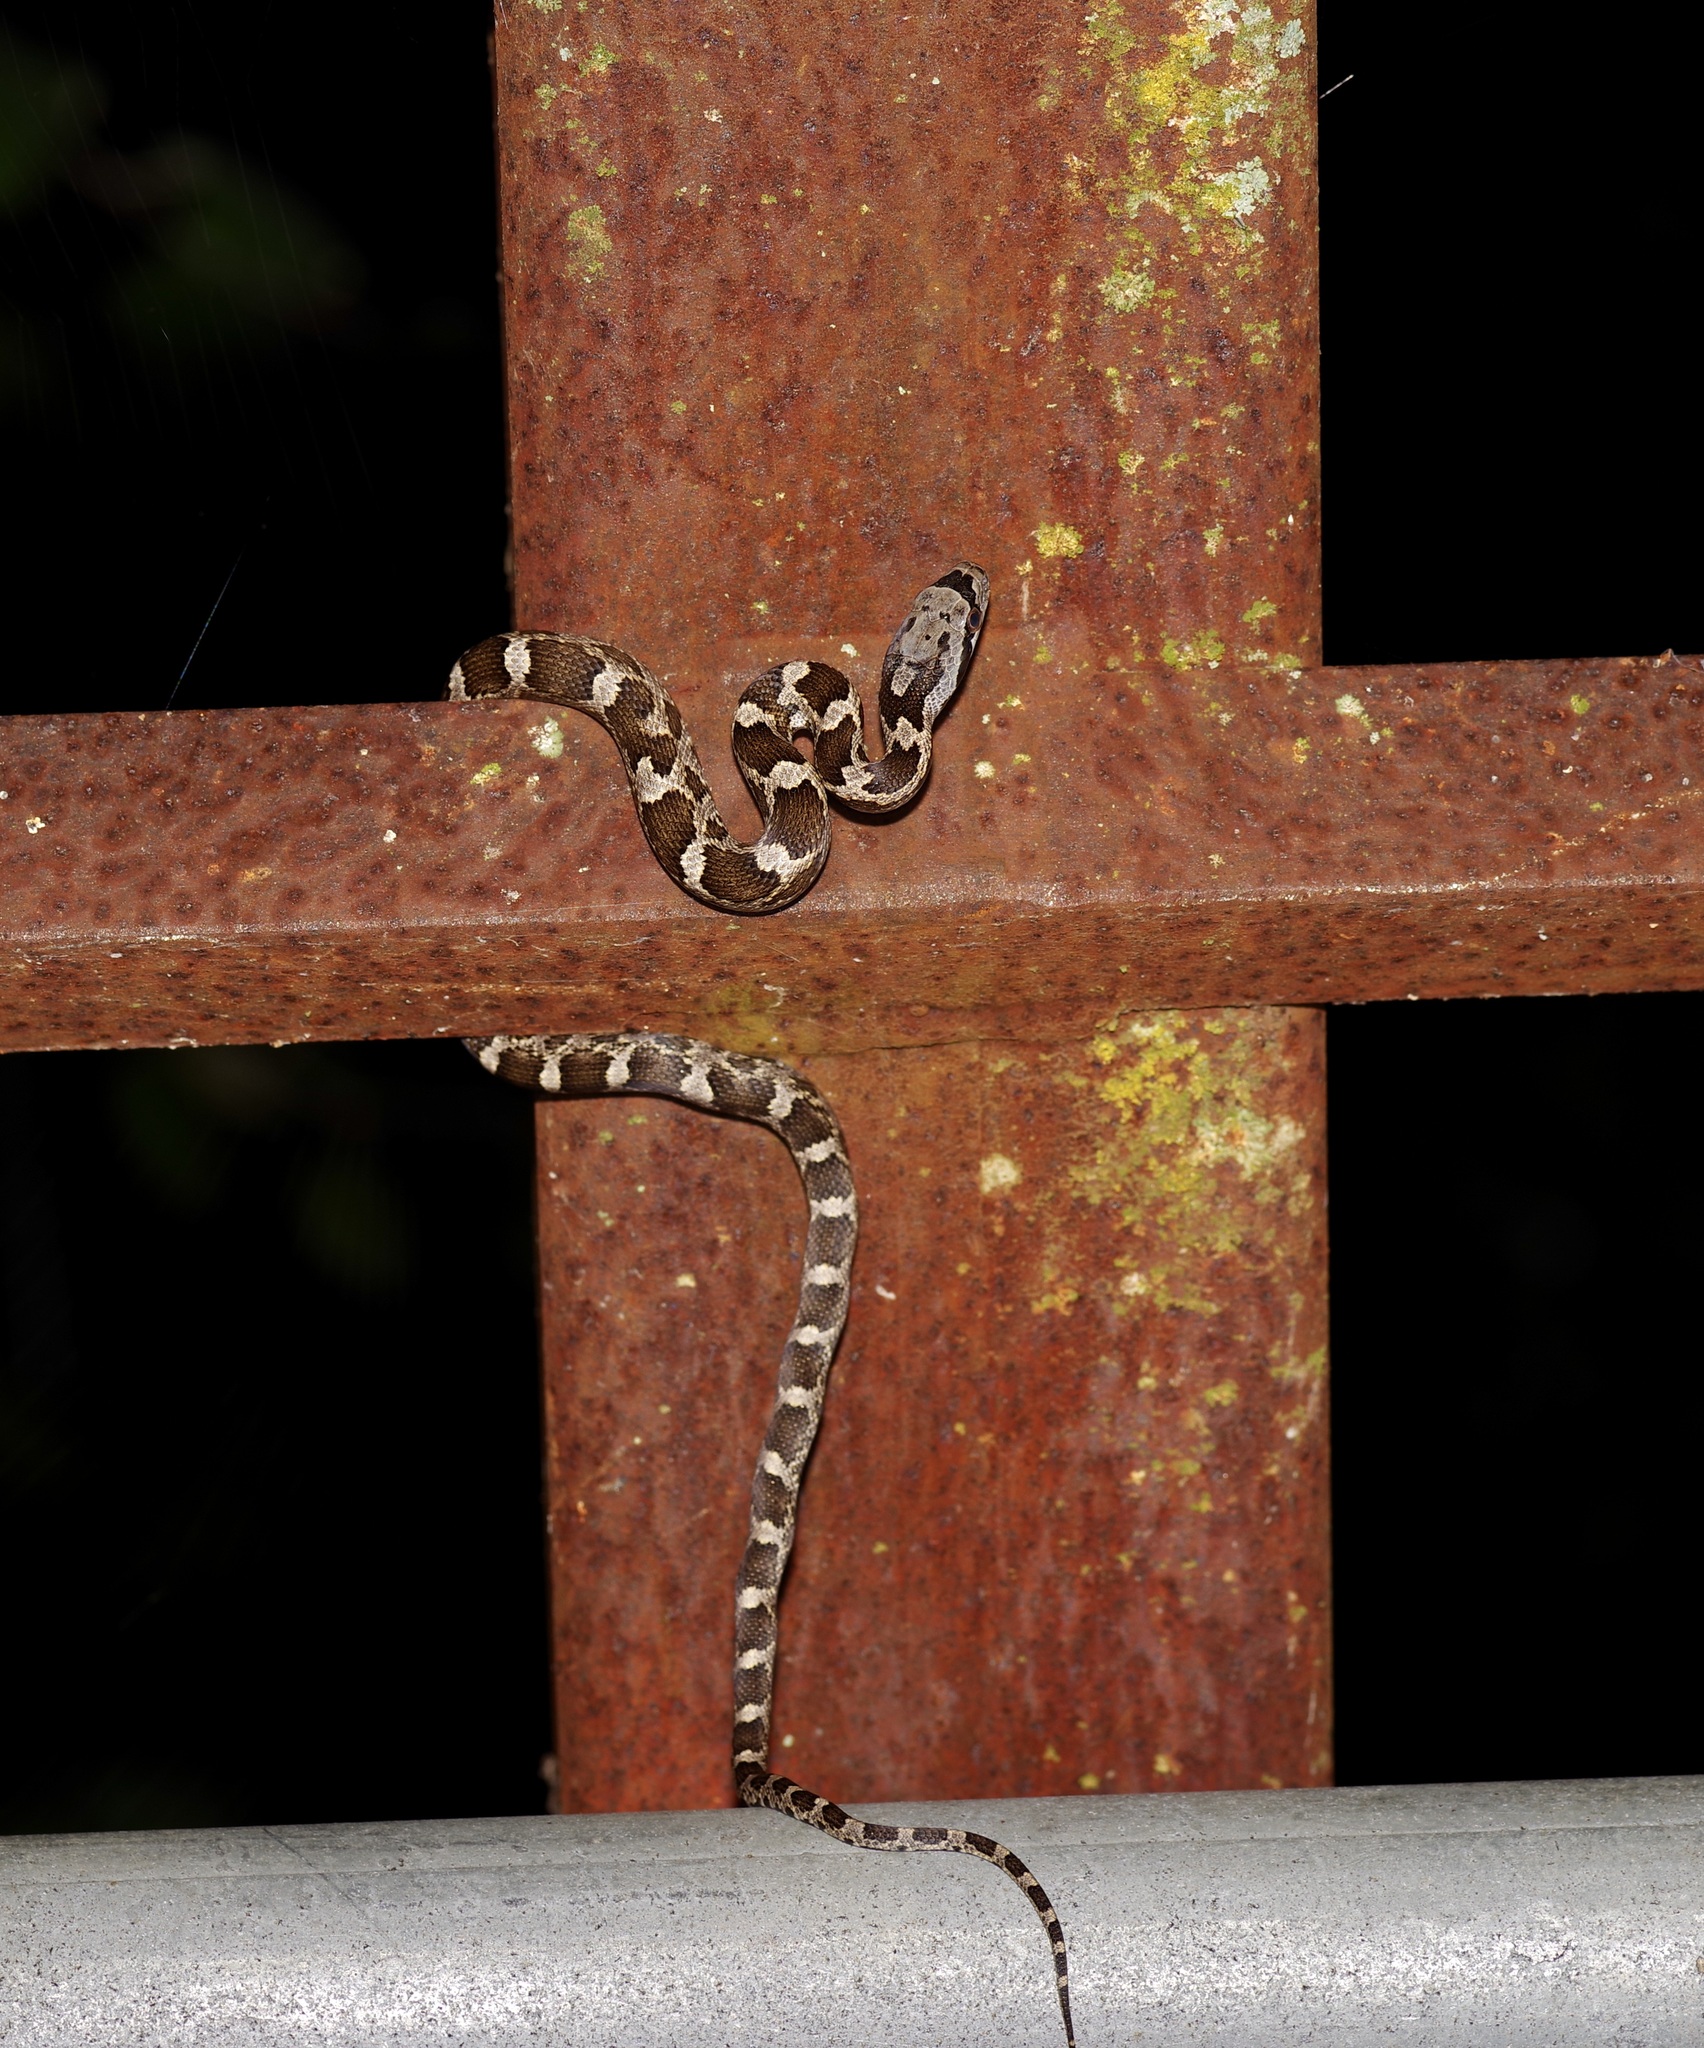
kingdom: Animalia
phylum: Chordata
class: Squamata
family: Colubridae
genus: Pantherophis
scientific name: Pantherophis obsoletus
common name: Black rat snake
